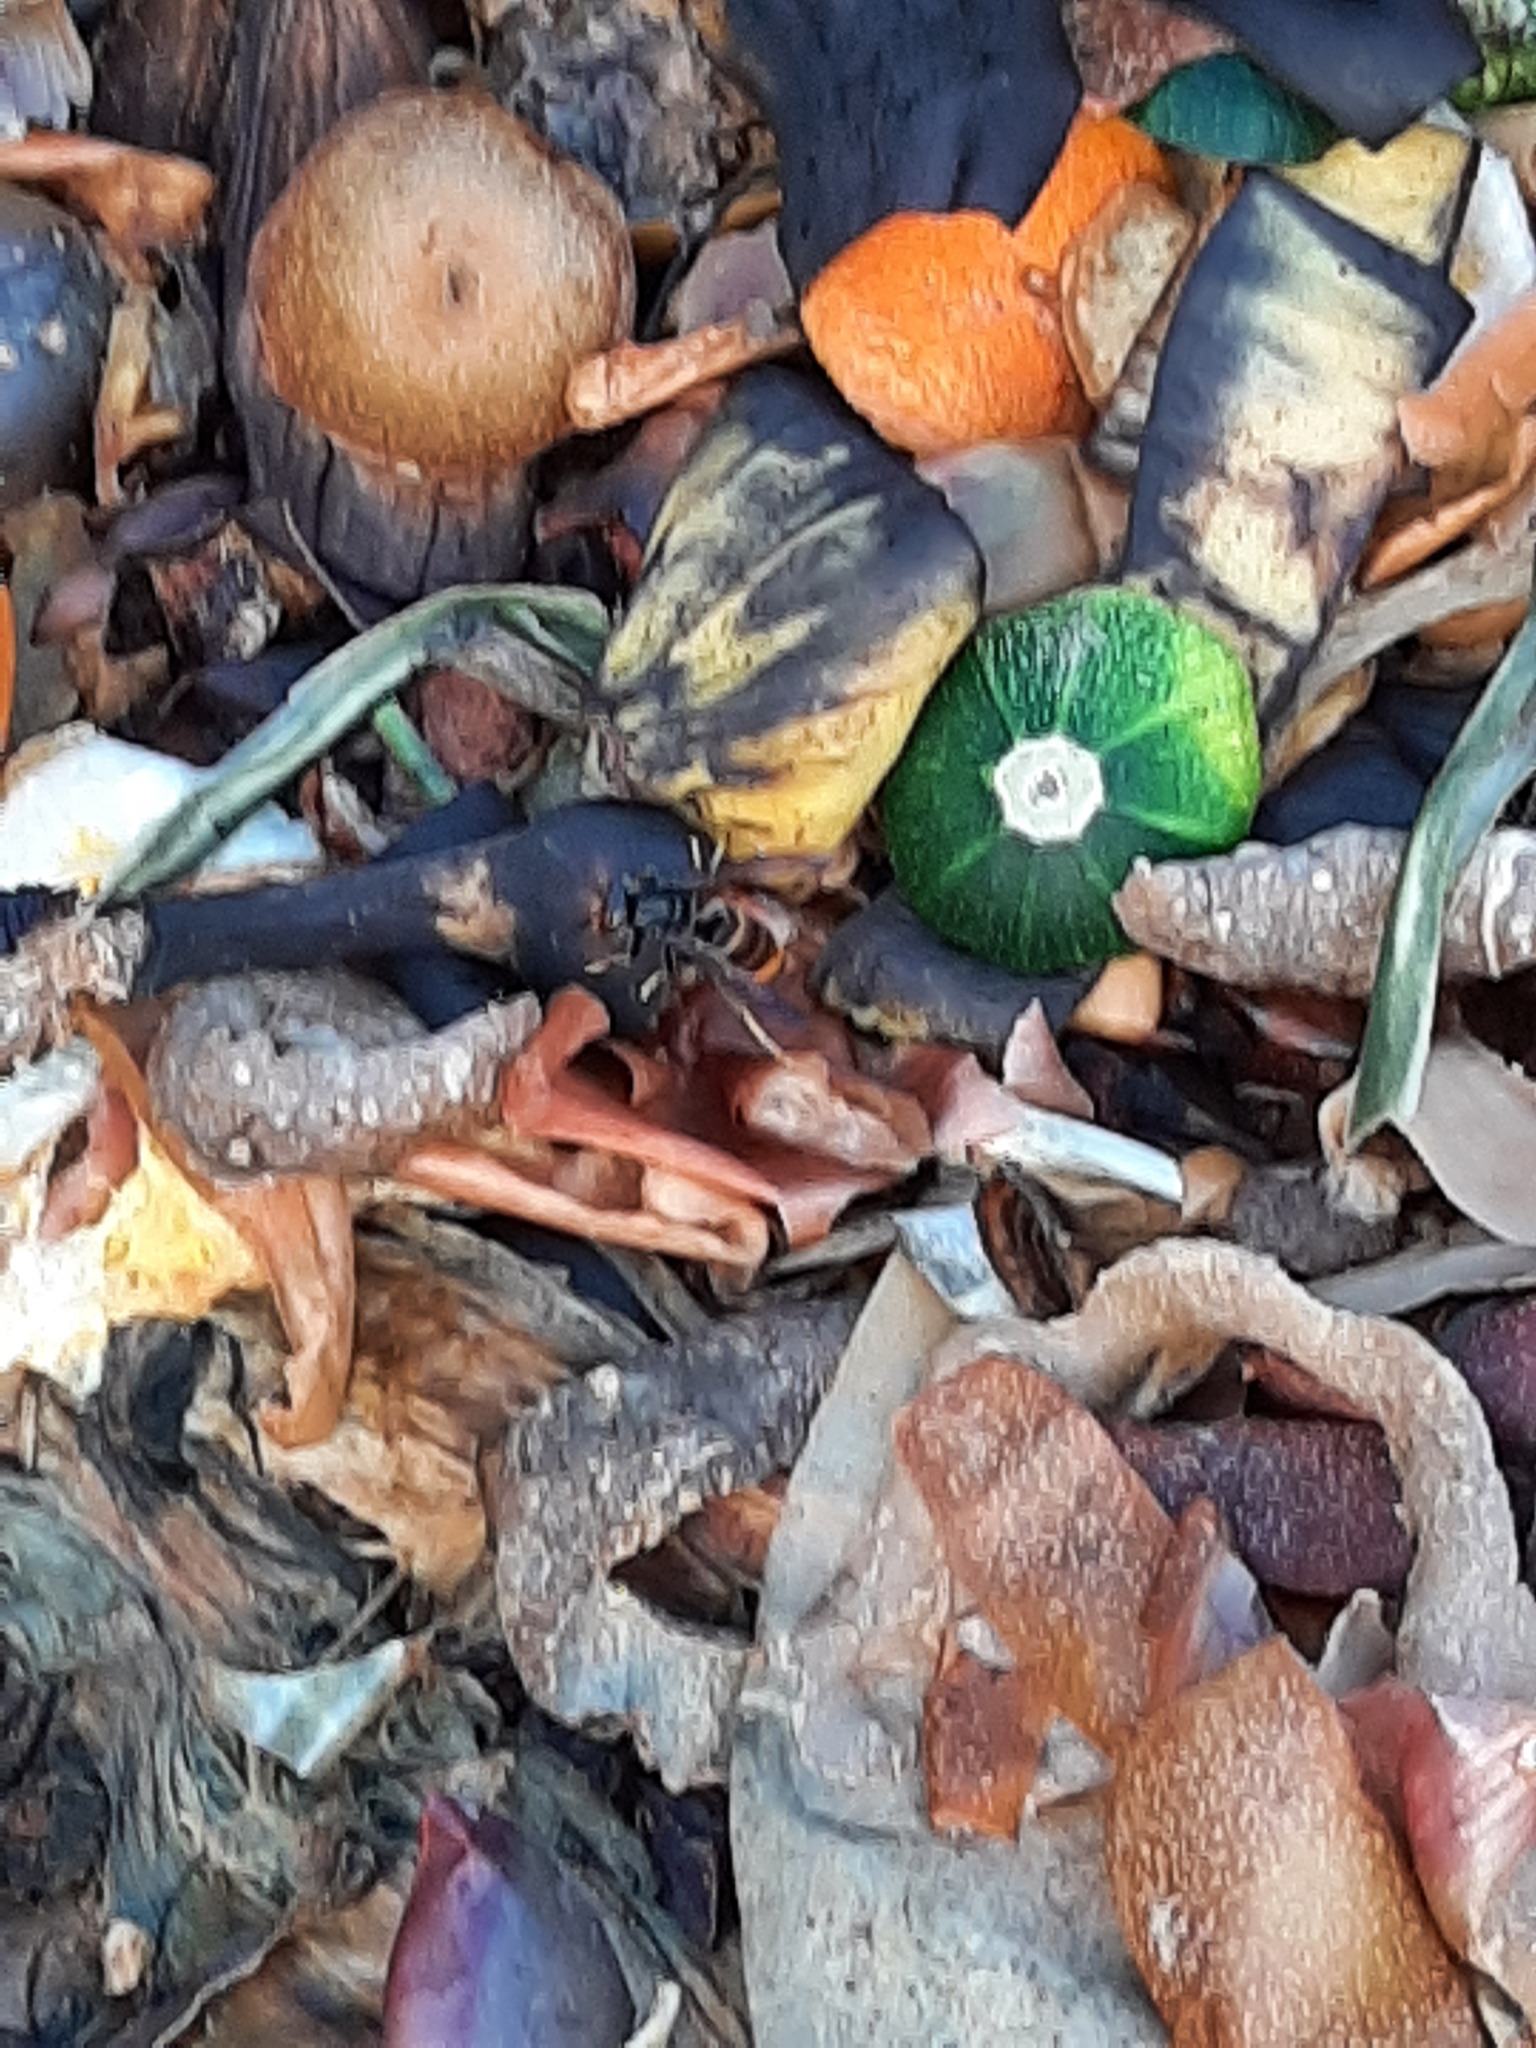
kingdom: Animalia
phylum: Arthropoda
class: Insecta
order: Hymenoptera
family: Vespidae
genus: Vespa
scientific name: Vespa velutina
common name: Asian hornet
